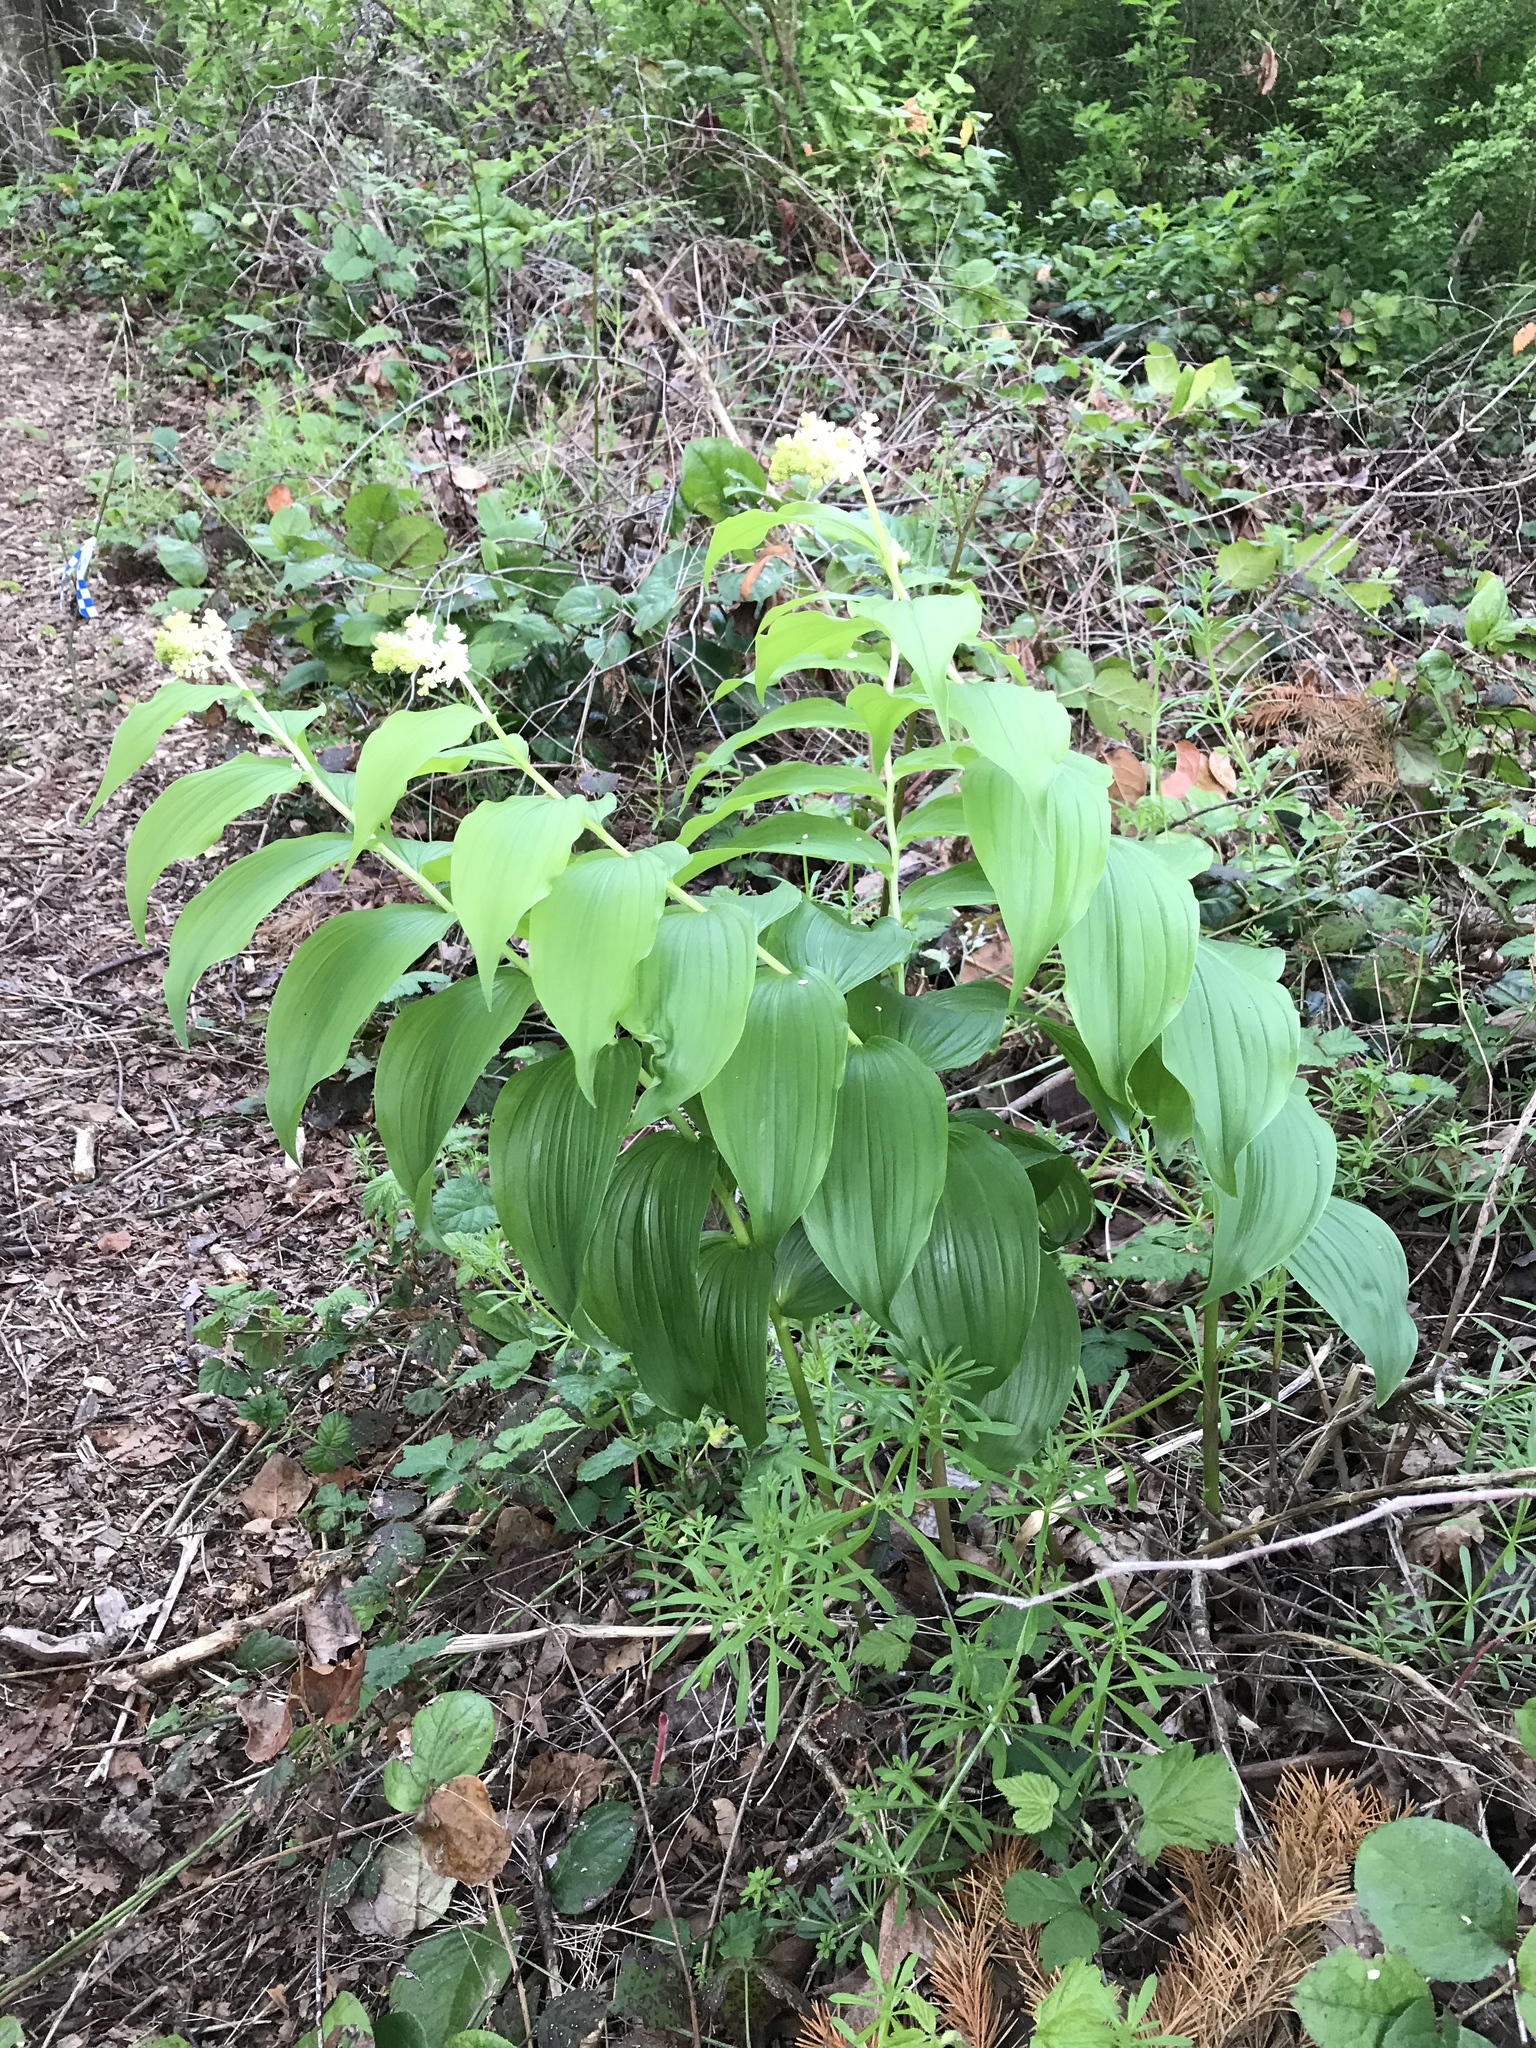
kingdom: Plantae
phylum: Tracheophyta
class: Liliopsida
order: Asparagales
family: Asparagaceae
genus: Maianthemum
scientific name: Maianthemum racemosum
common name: False spikenard
